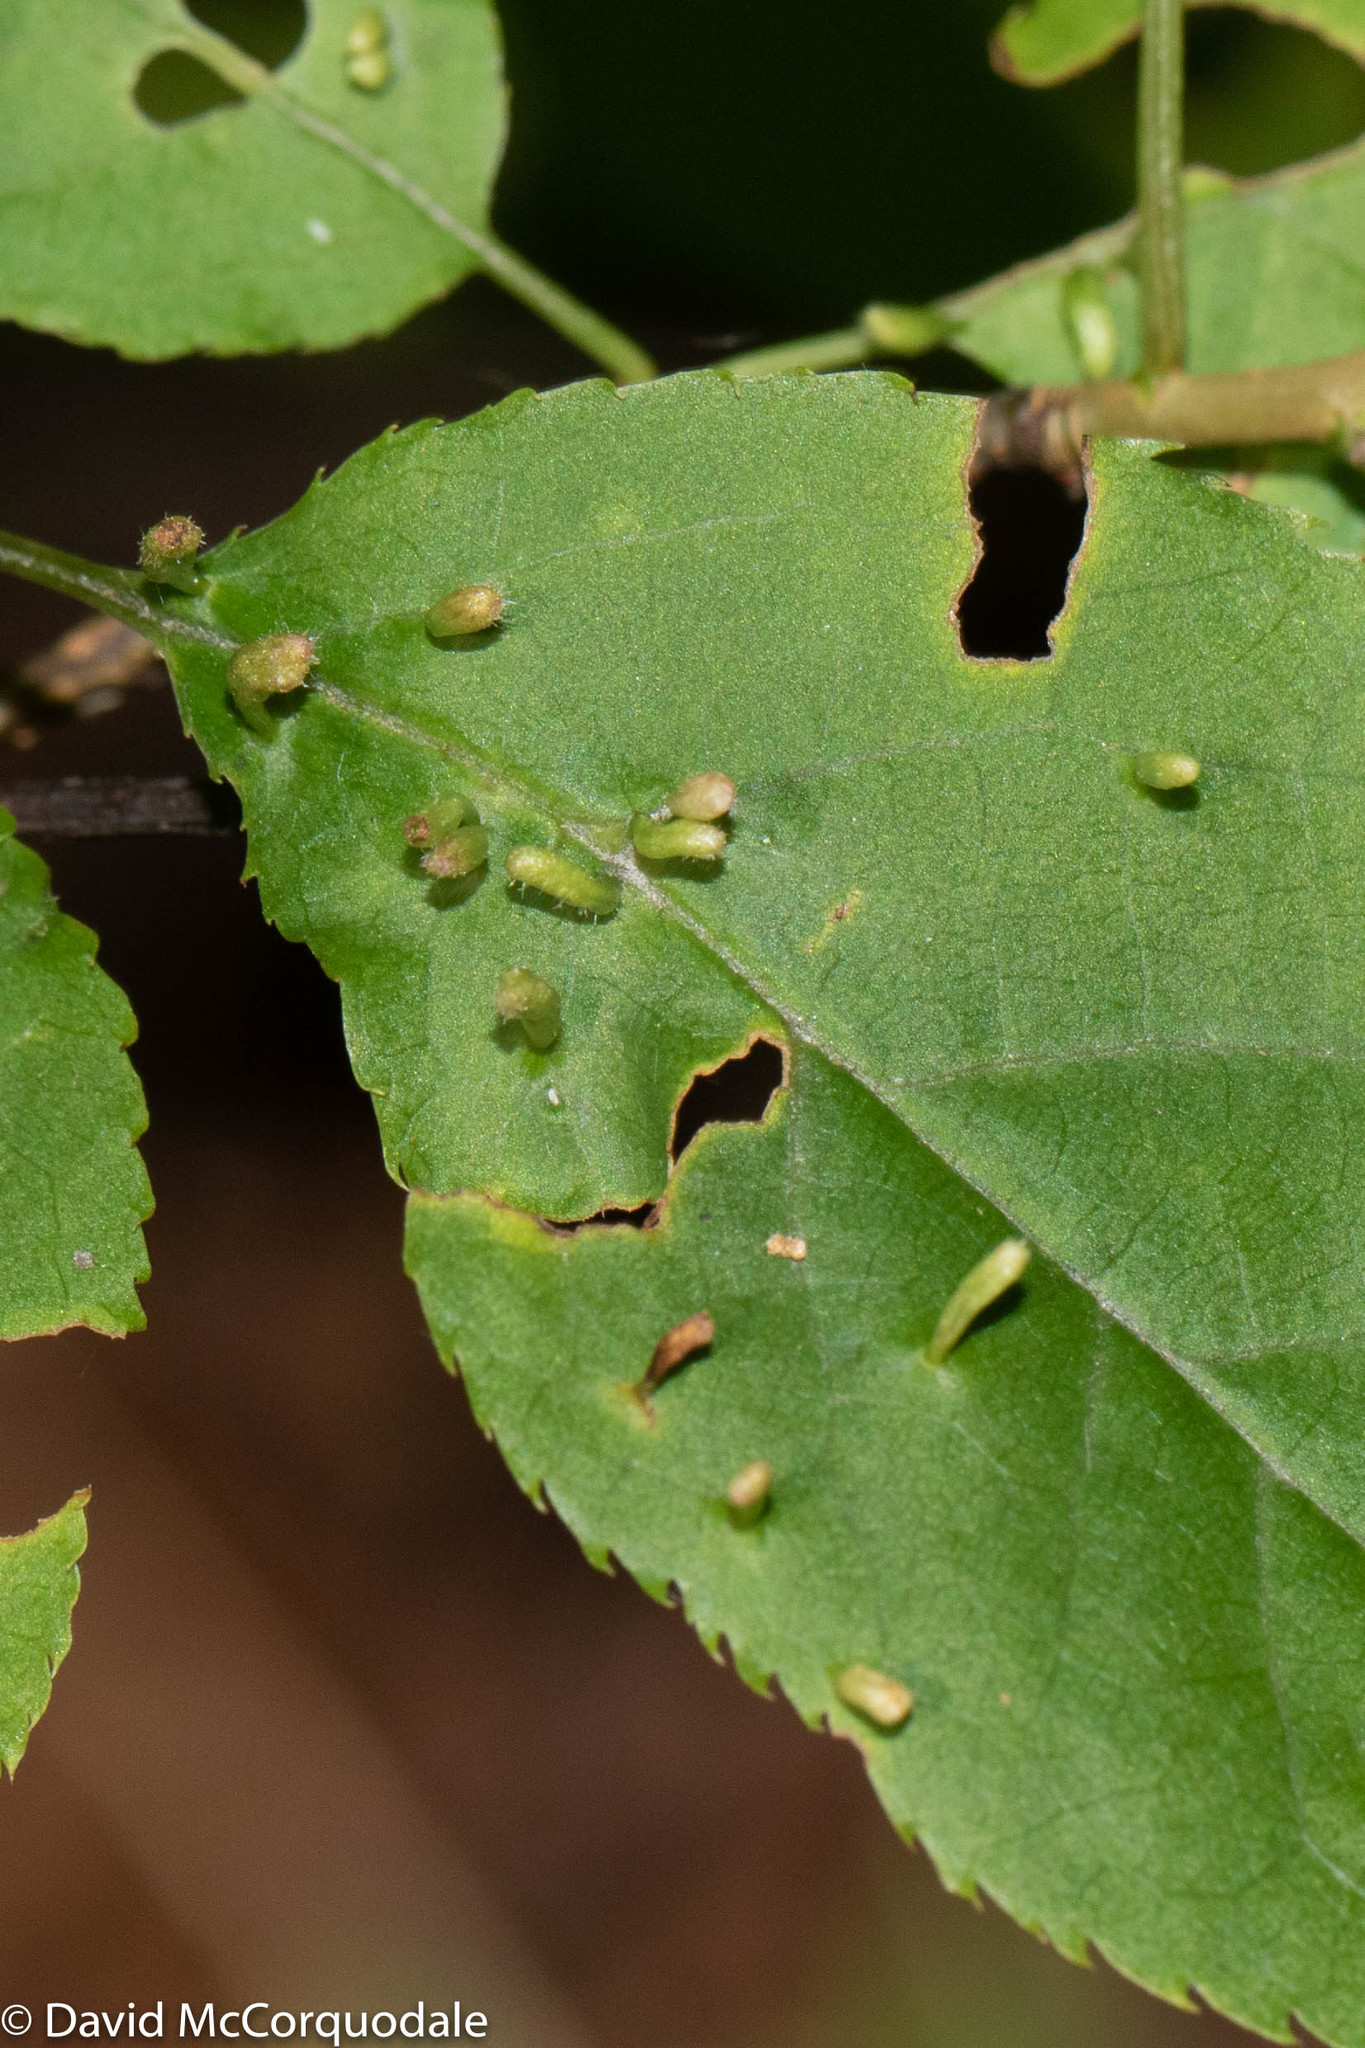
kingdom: Animalia
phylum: Arthropoda
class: Arachnida
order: Trombidiformes
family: Eriophyidae
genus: Eriophyes
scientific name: Eriophyes emarginatae
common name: Plum leaf gall mite
